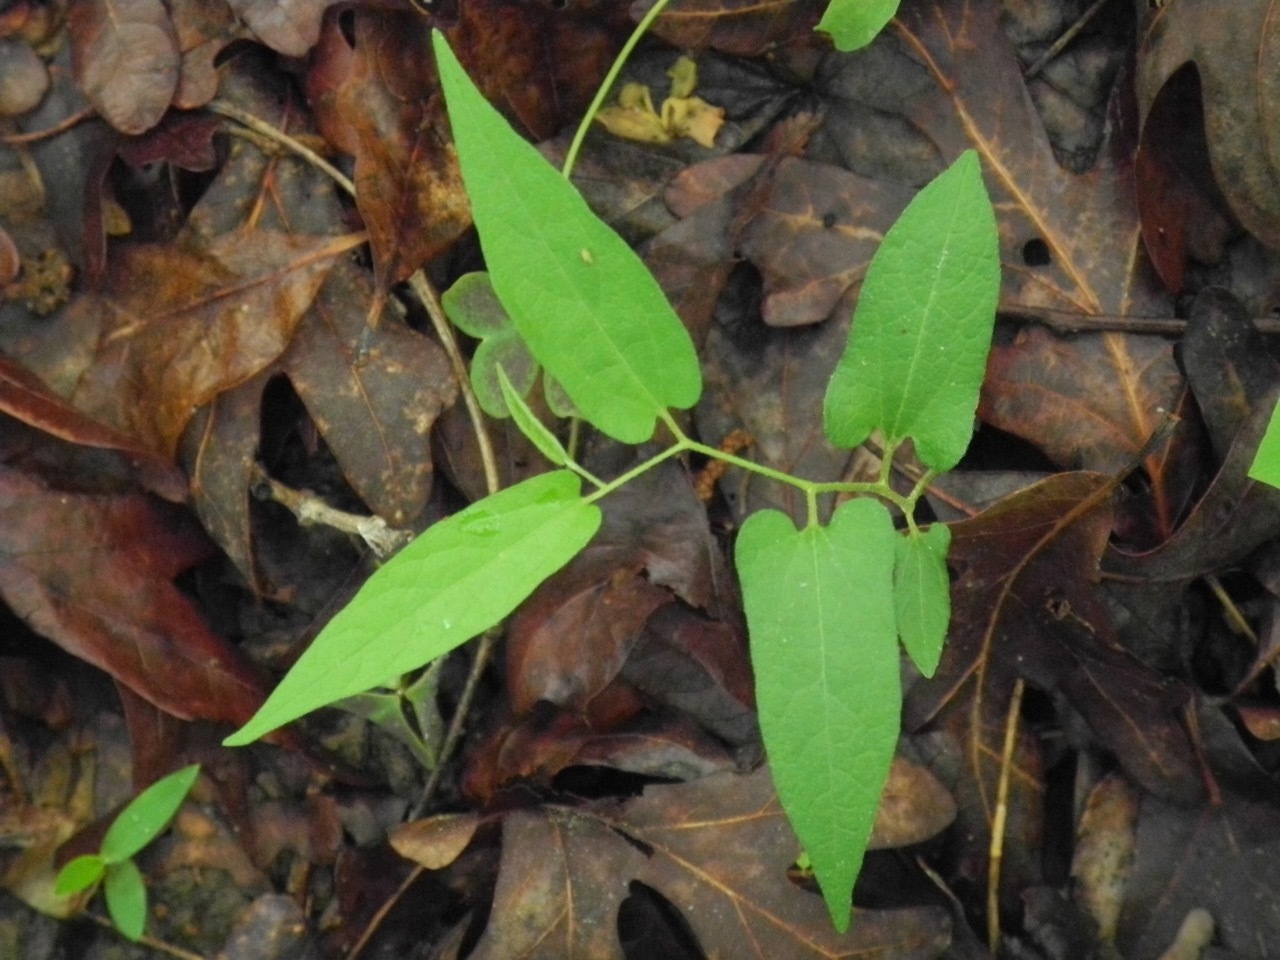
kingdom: Plantae
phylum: Tracheophyta
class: Magnoliopsida
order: Piperales
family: Aristolochiaceae
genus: Endodeca
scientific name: Endodeca serpentaria
